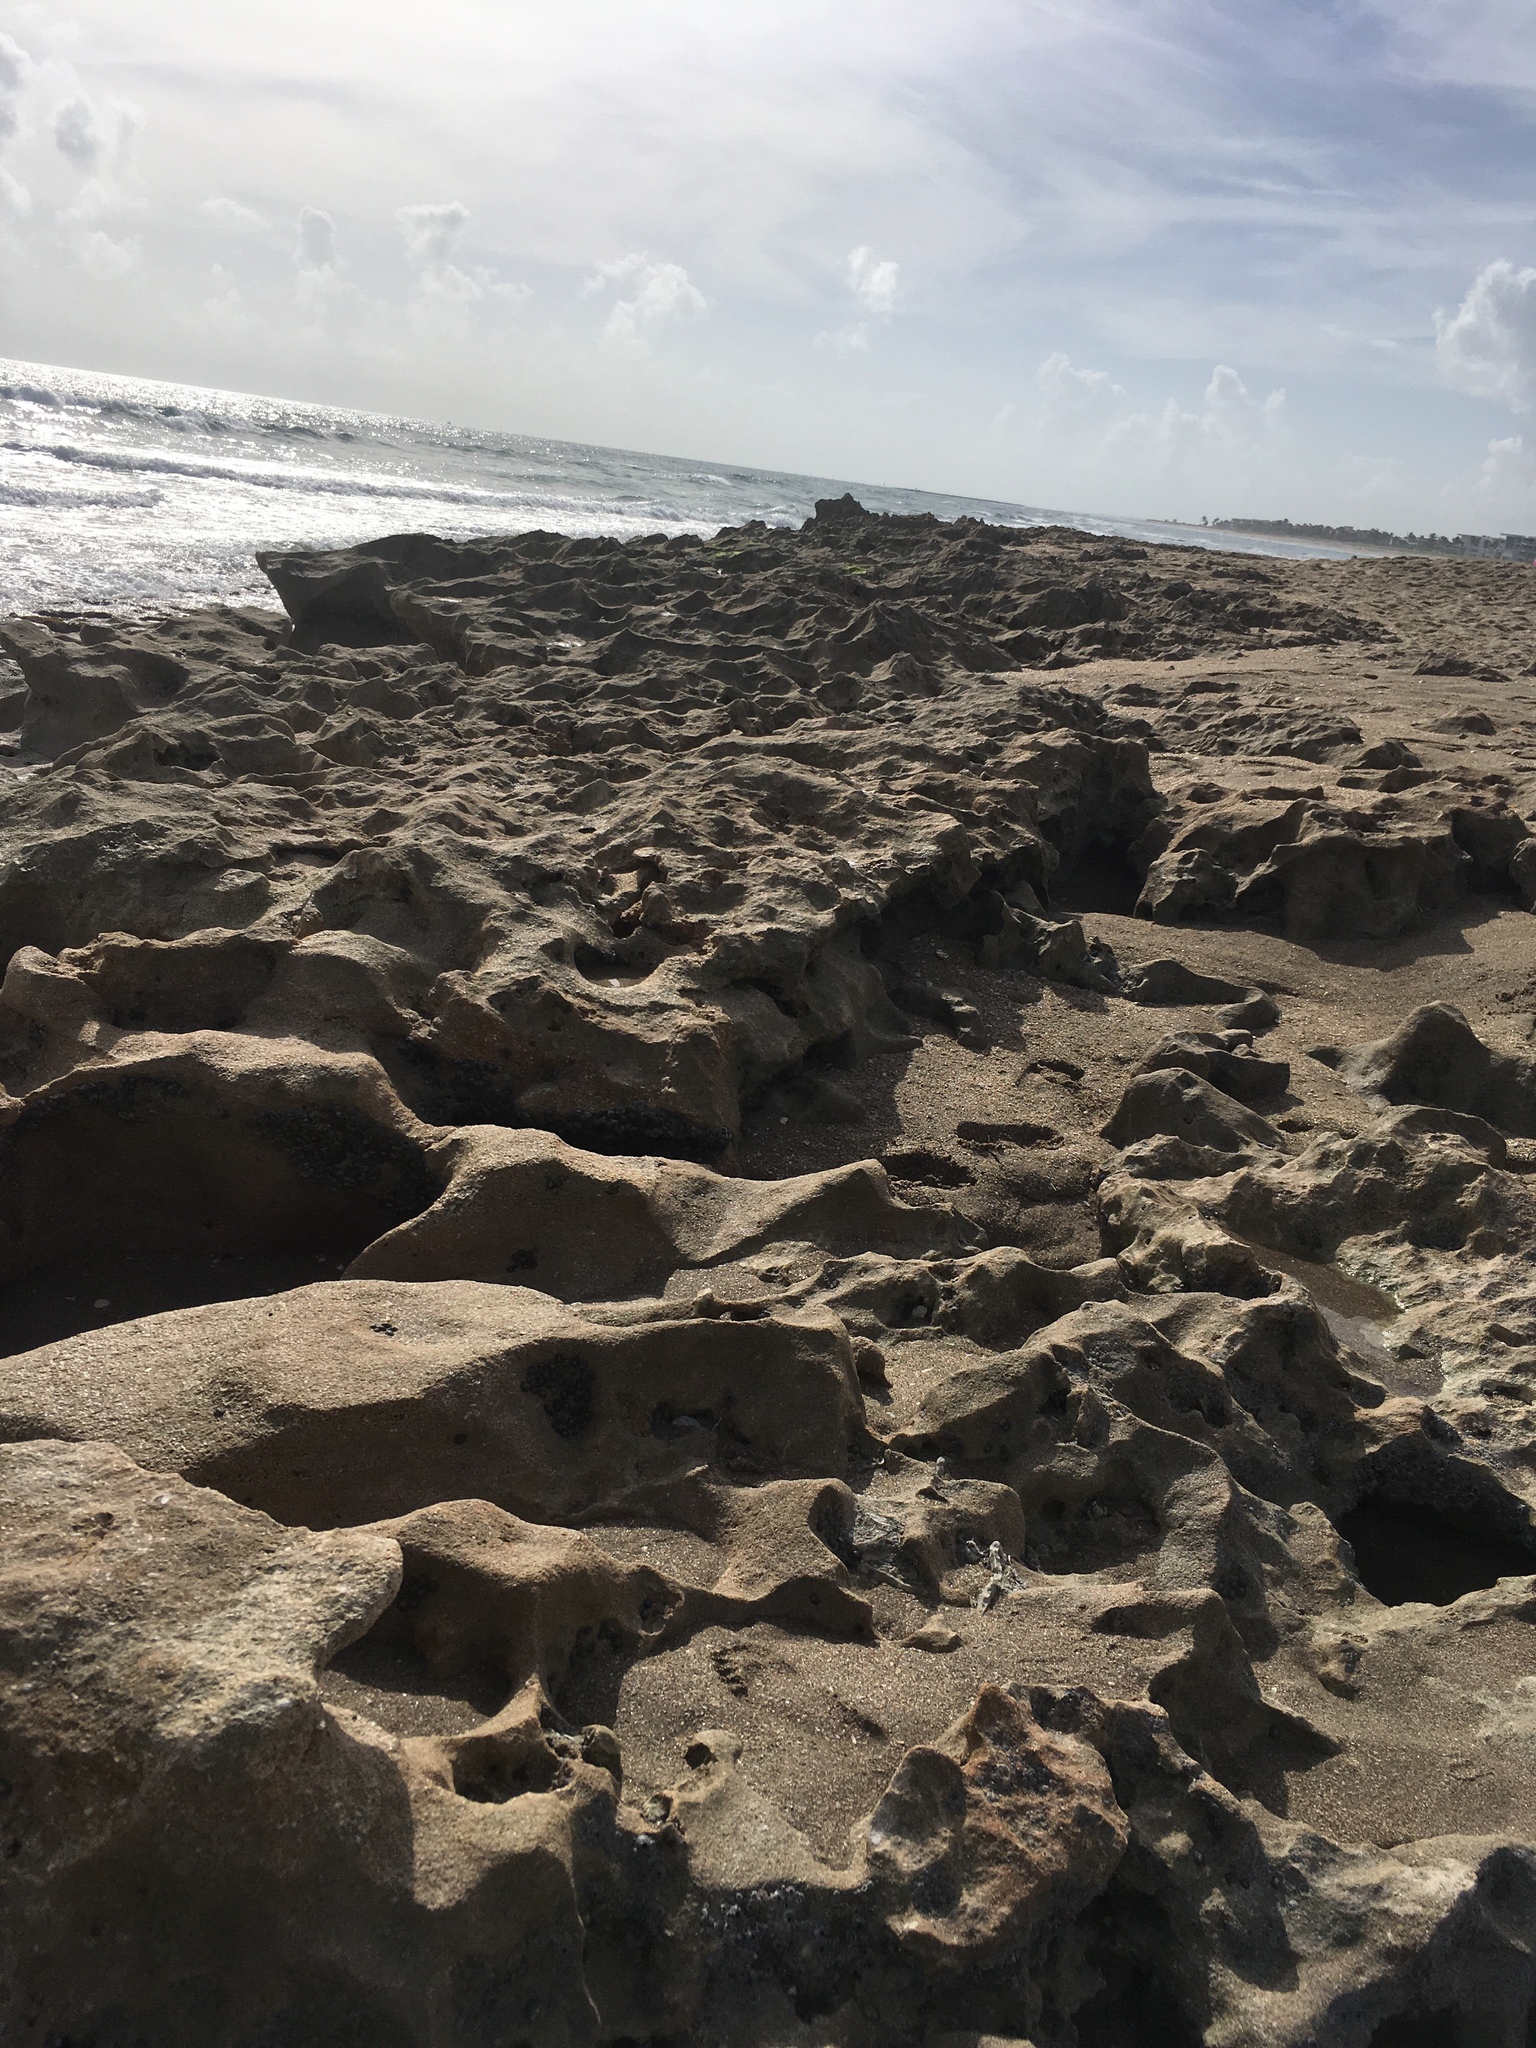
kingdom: Animalia
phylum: Arthropoda
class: Maxillopoda
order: Sessilia
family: Chthamalidae
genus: Chthamalus
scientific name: Chthamalus fragilis
